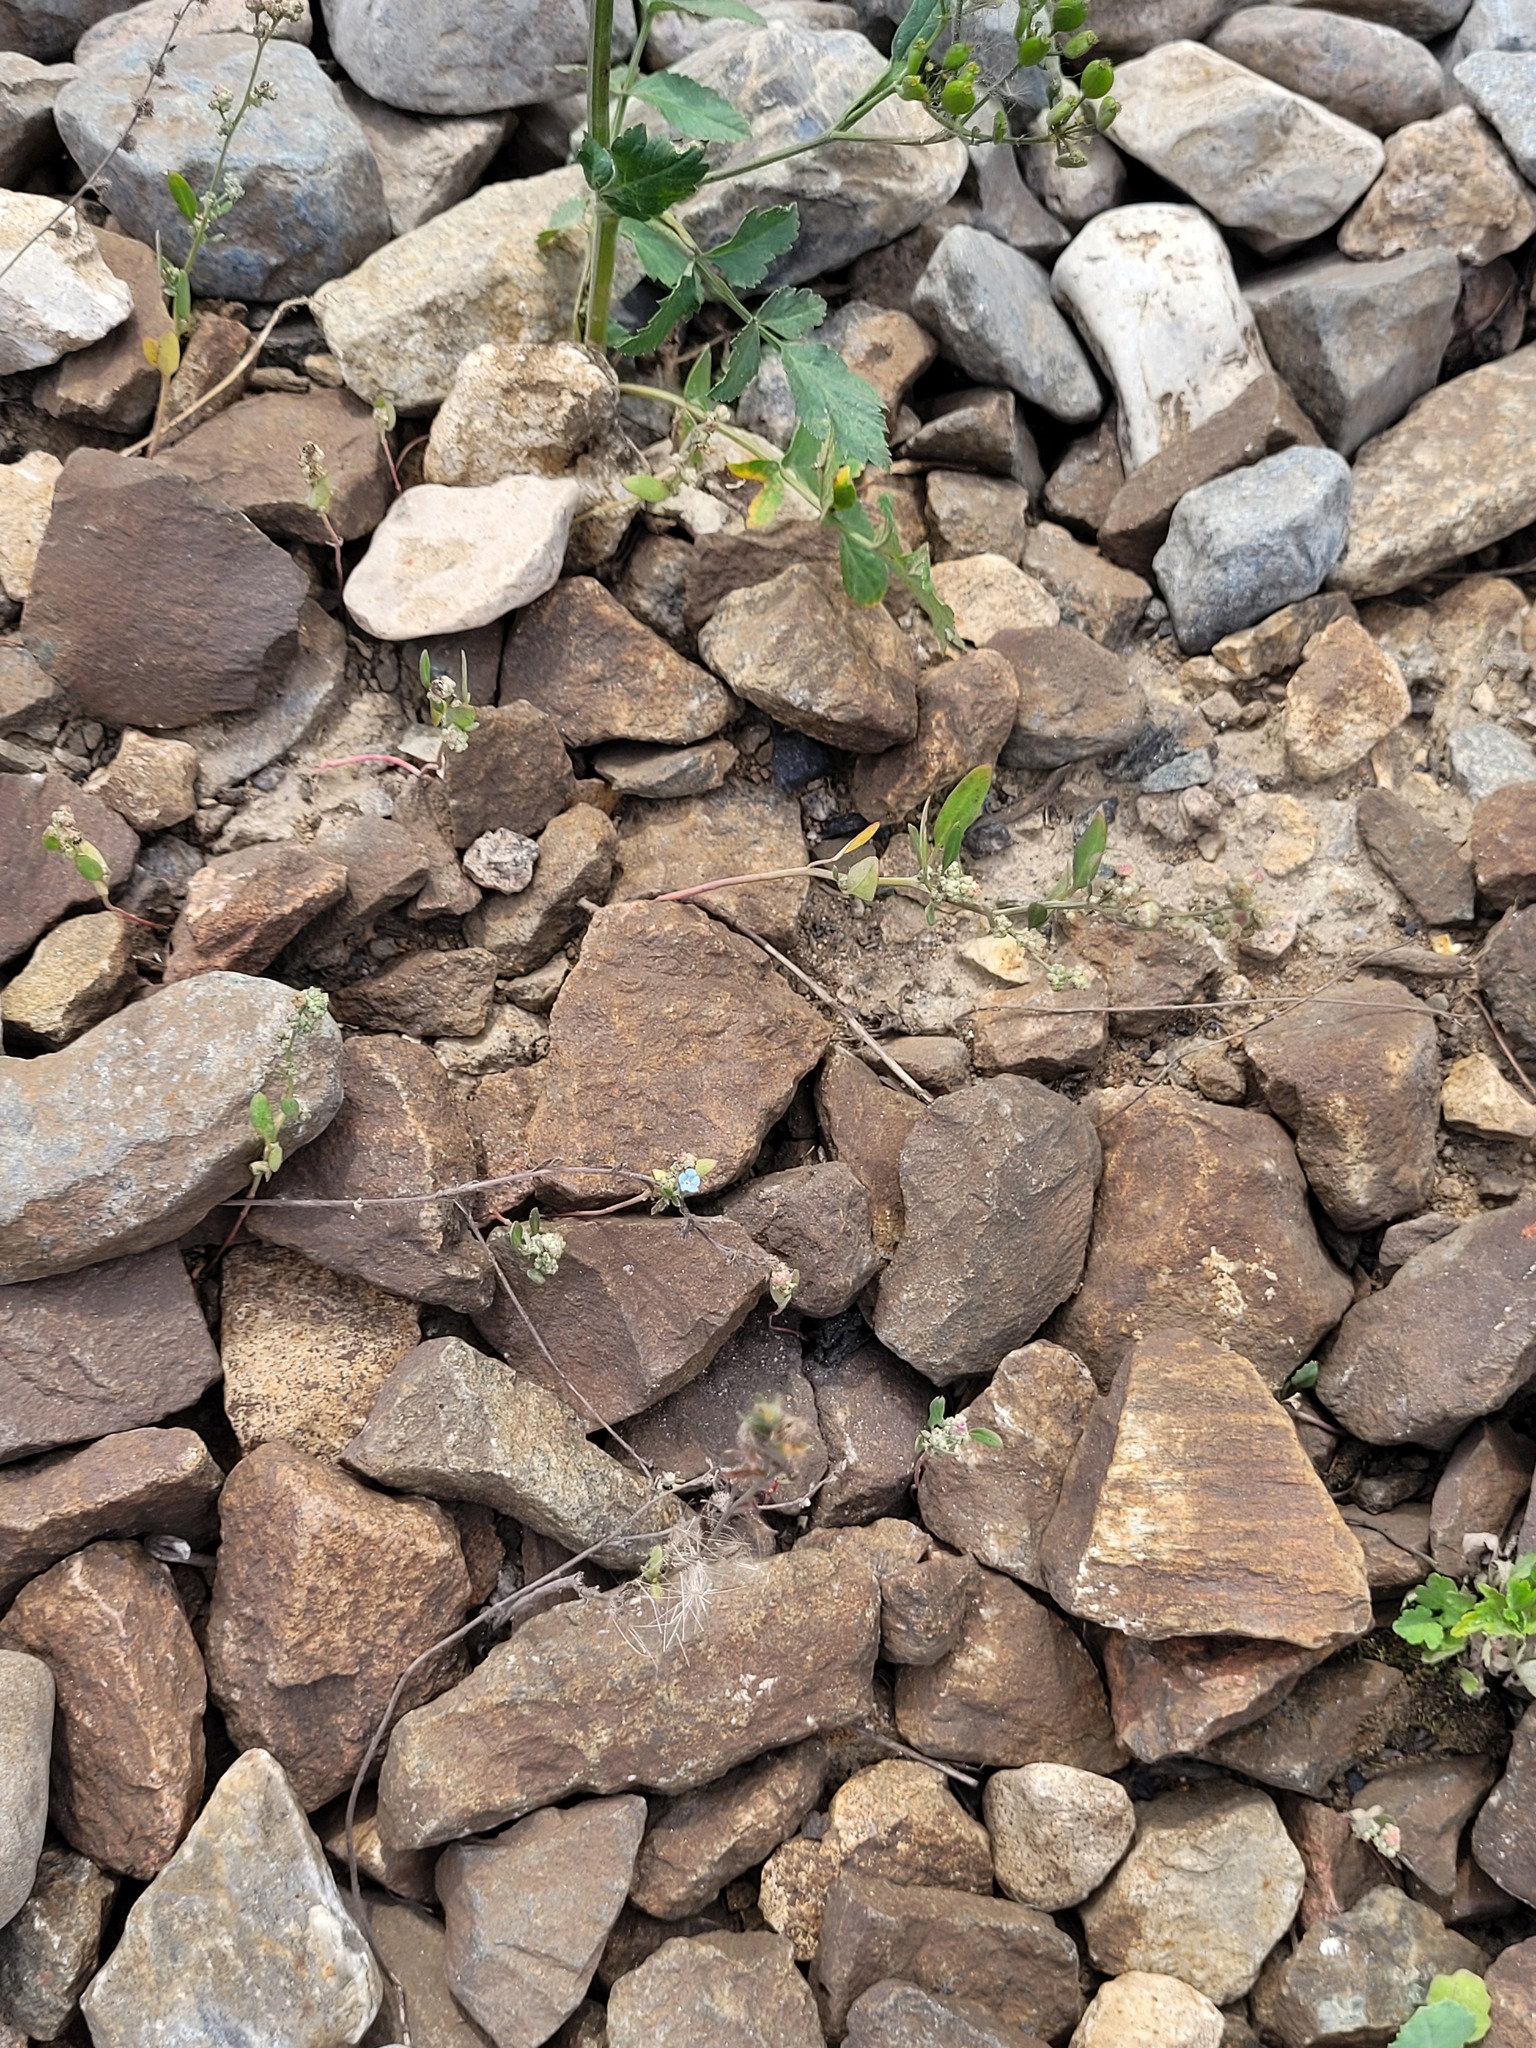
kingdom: Plantae
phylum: Tracheophyta
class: Magnoliopsida
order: Boraginales
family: Boraginaceae
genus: Lappula
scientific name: Lappula squarrosa
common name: European stickseed
